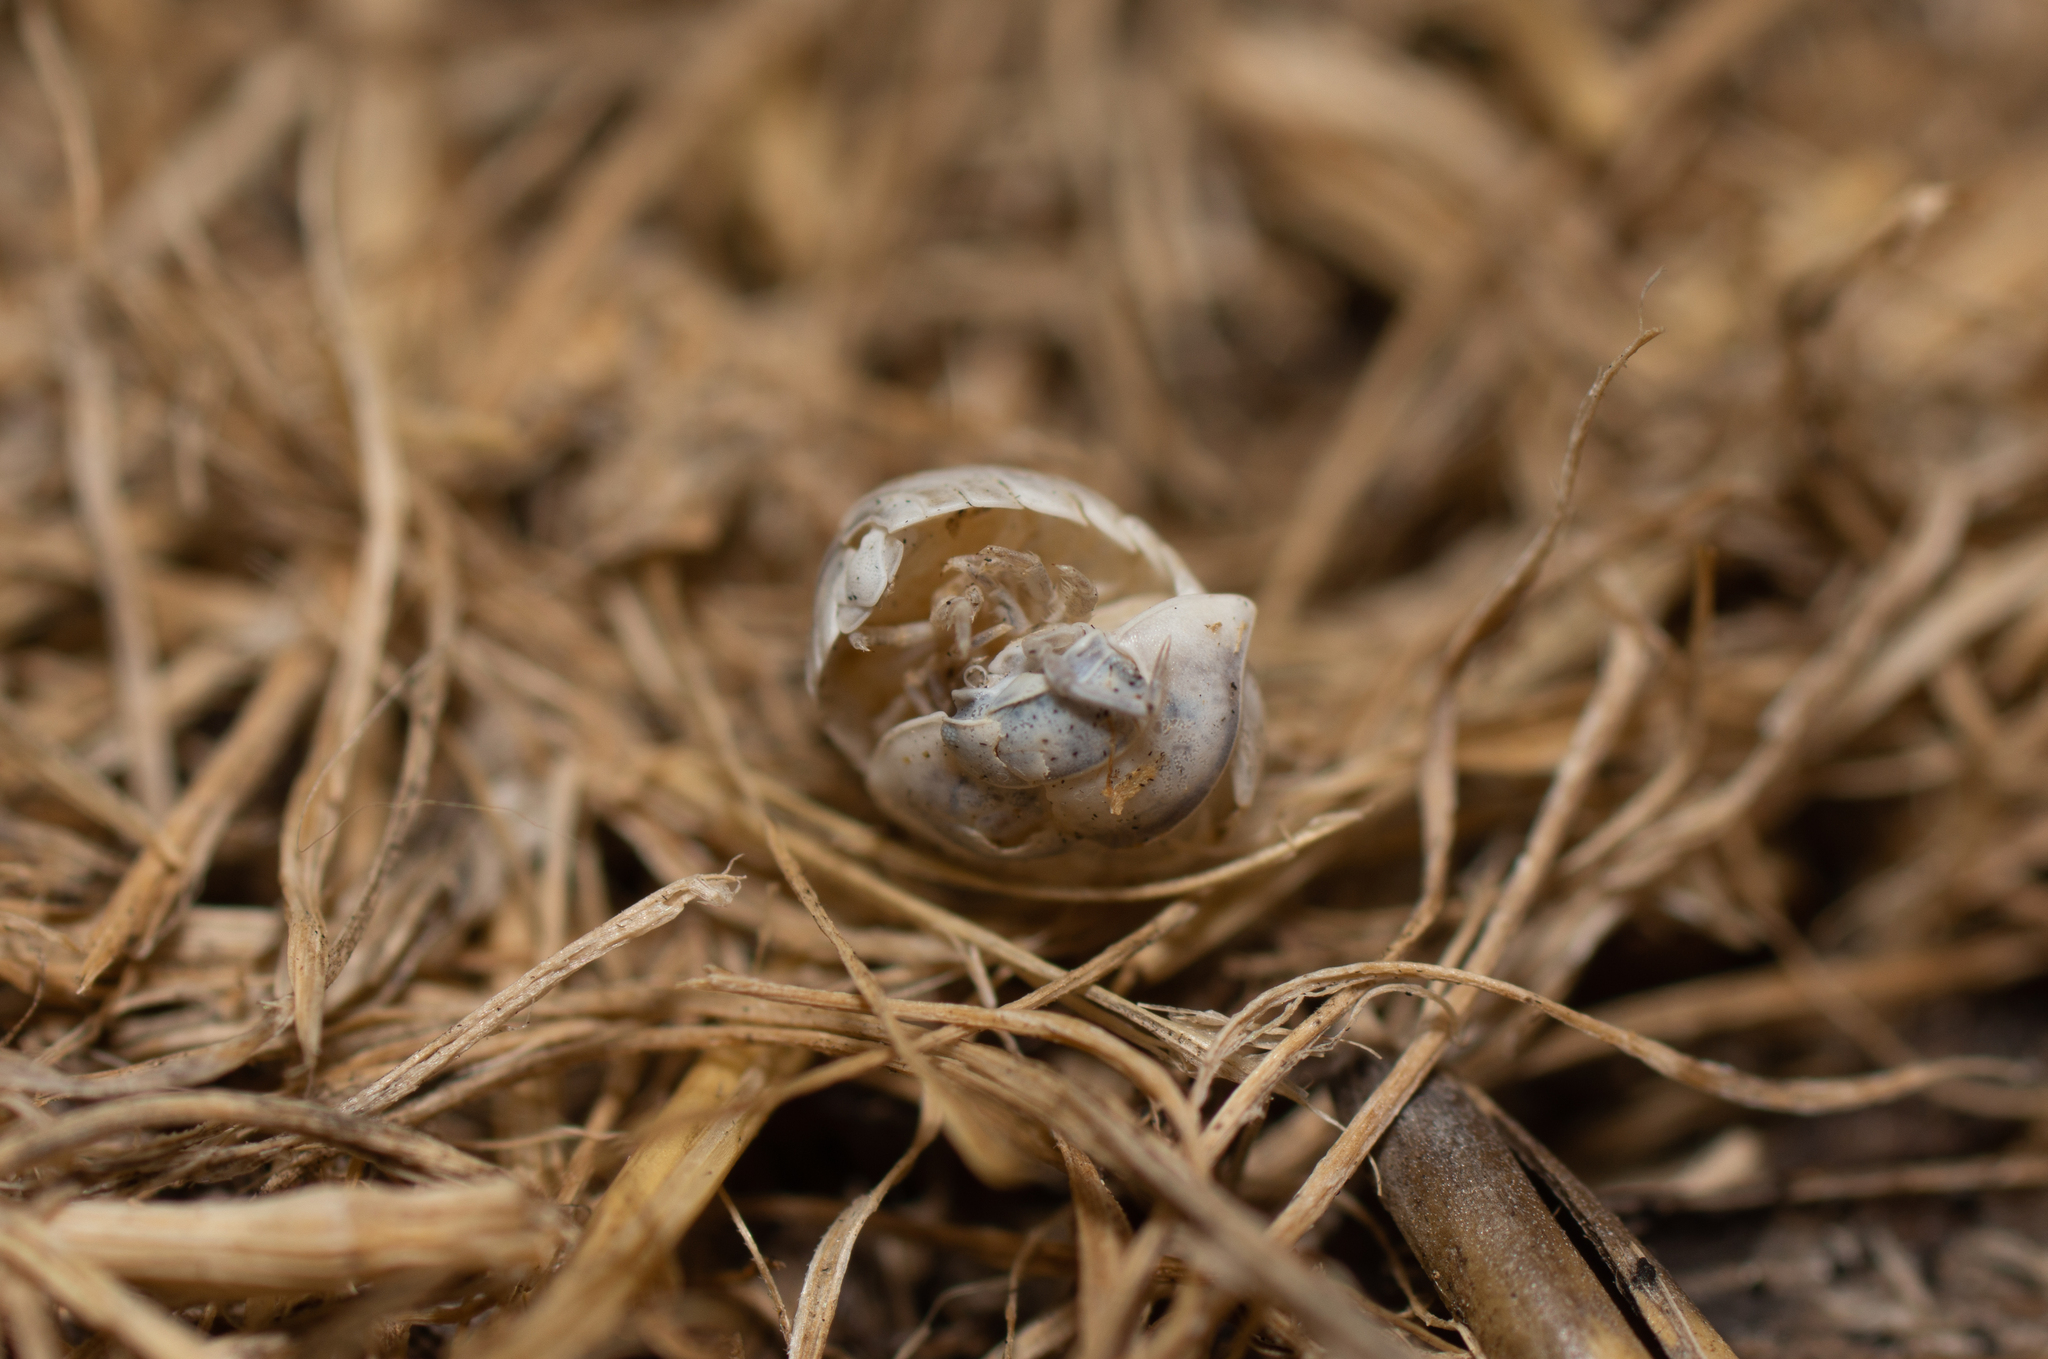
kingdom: Animalia
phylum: Arthropoda
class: Malacostraca
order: Isopoda
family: Armadillidiidae
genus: Armadillidium
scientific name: Armadillidium vulgare
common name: Common pill woodlouse
